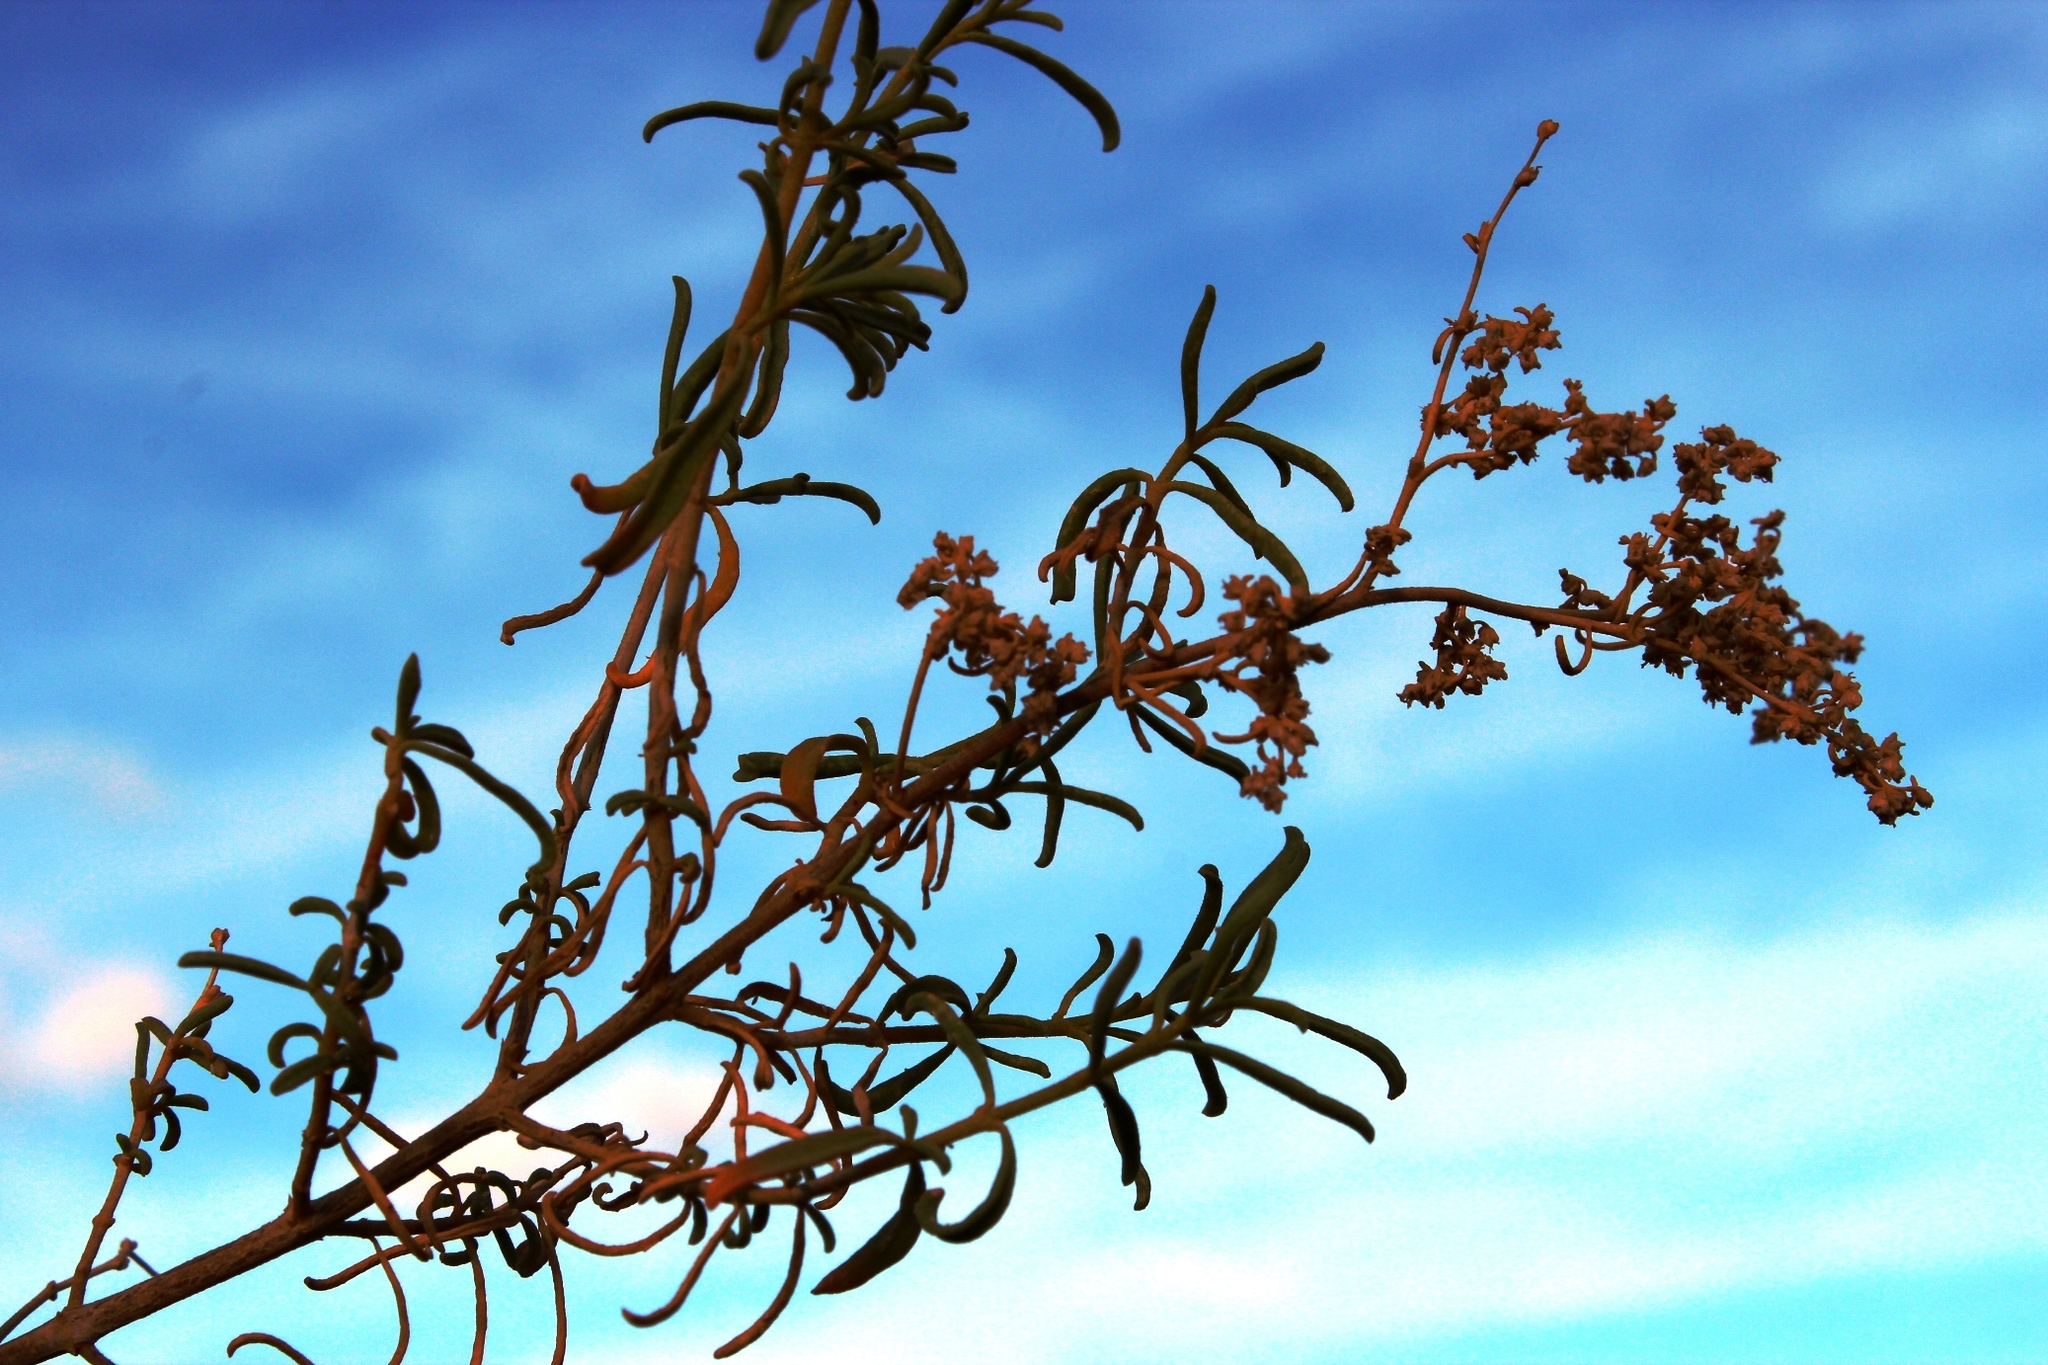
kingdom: Plantae
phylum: Tracheophyta
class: Magnoliopsida
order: Caryophyllales
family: Aizoaceae
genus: Aizoon
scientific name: Aizoon africanum
